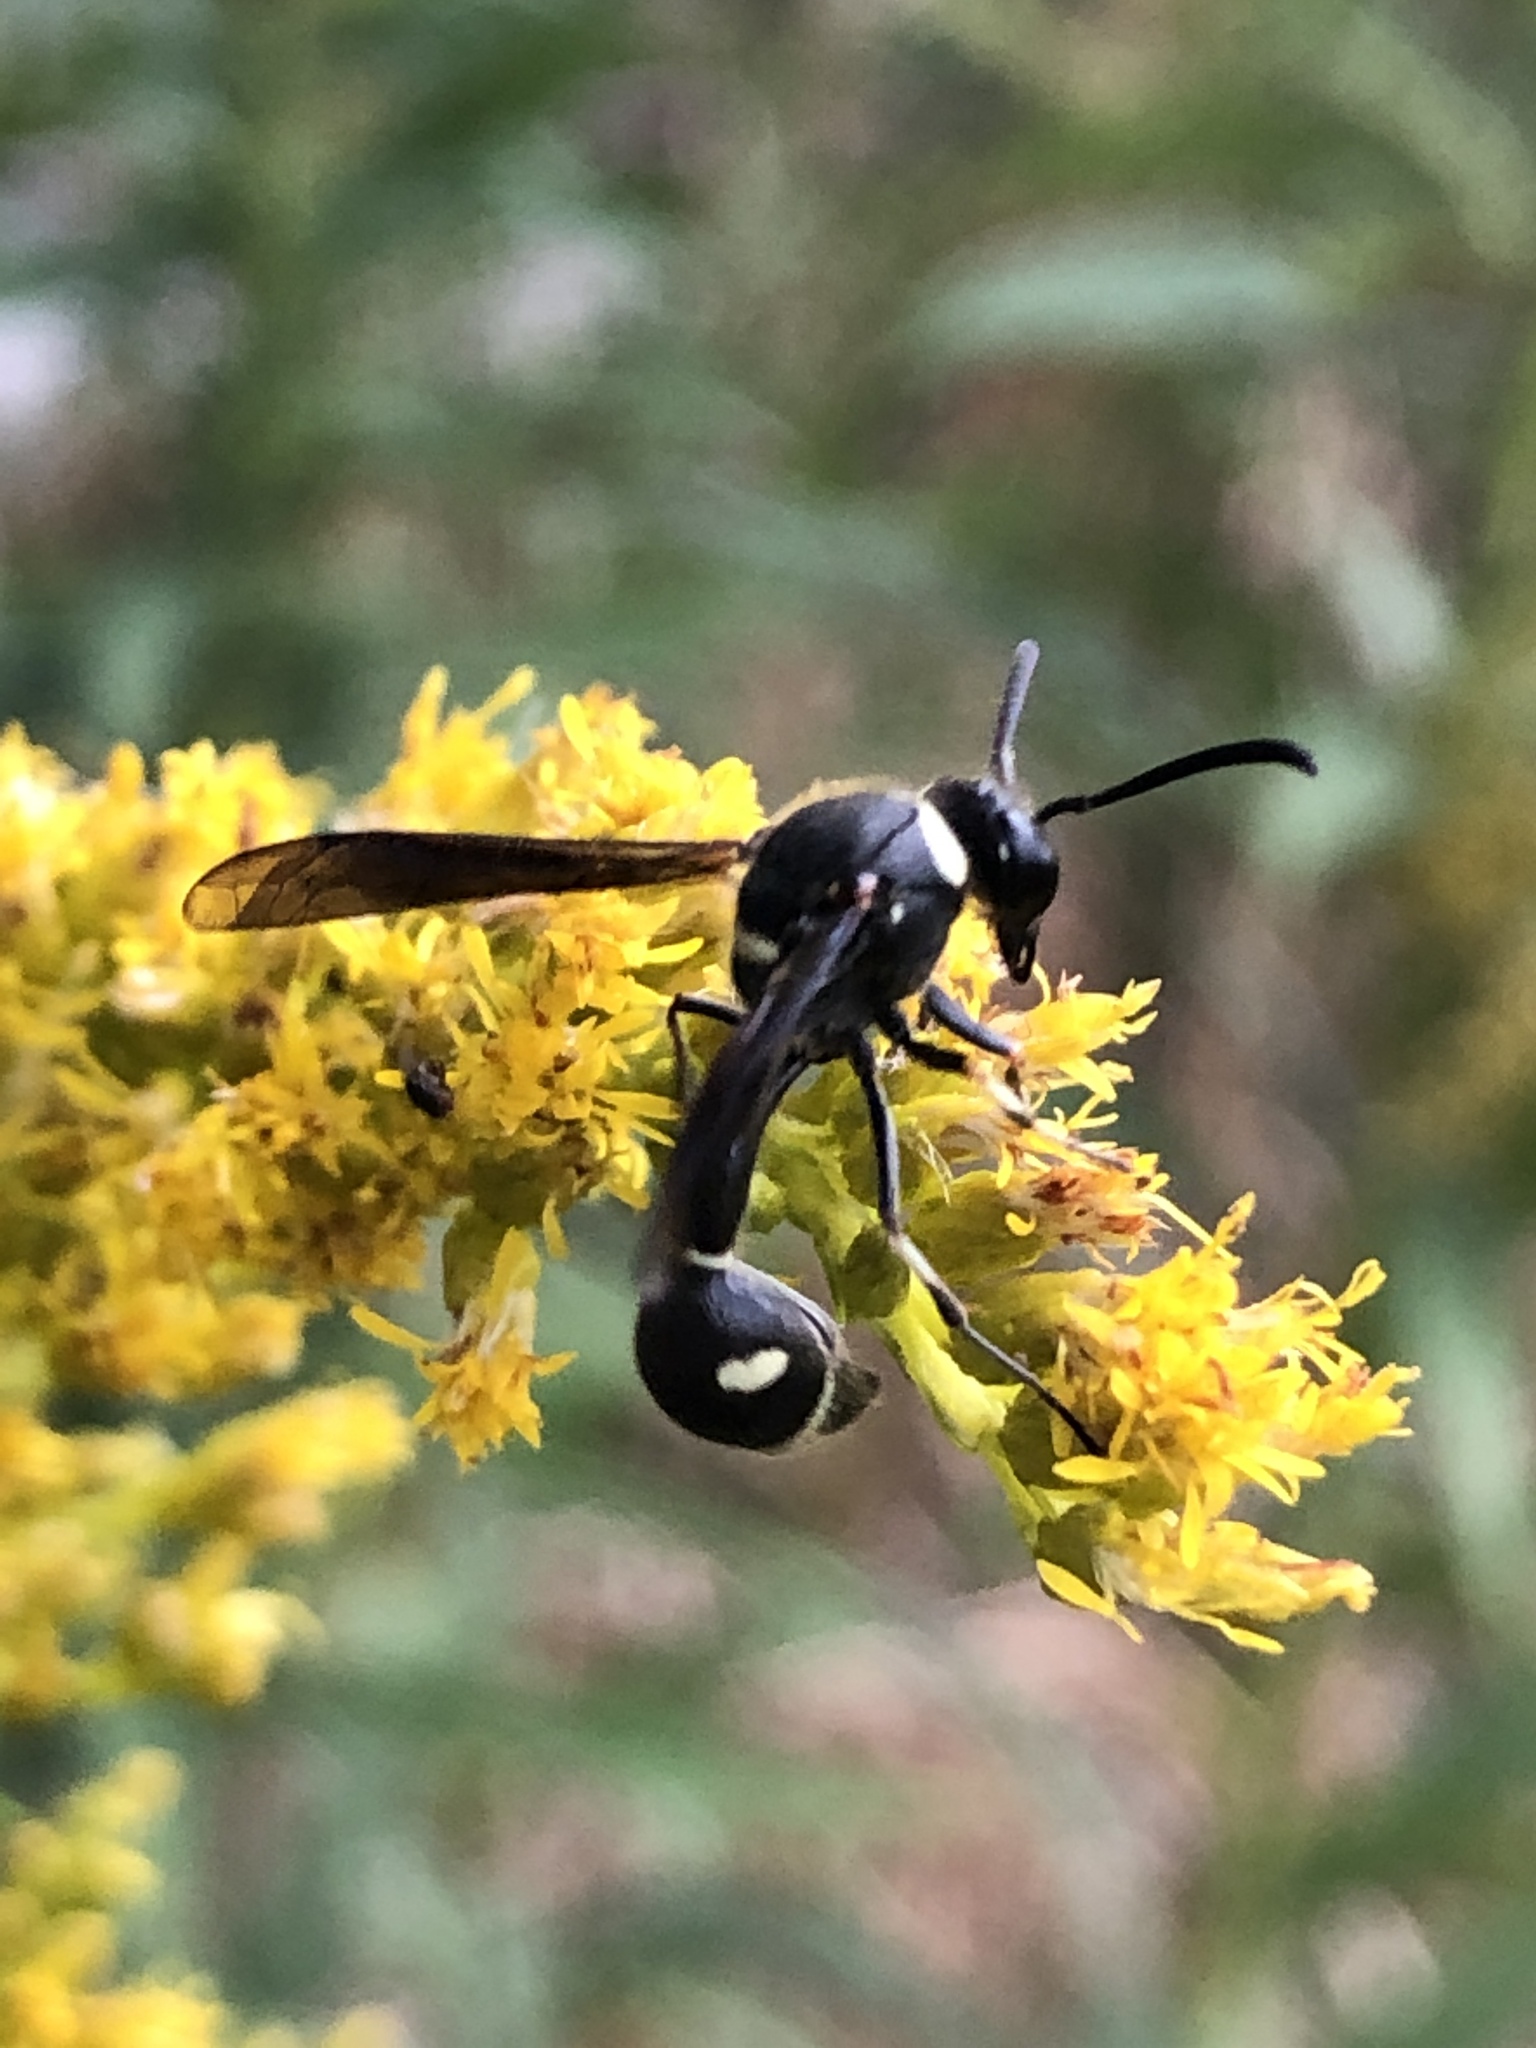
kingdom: Animalia
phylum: Arthropoda
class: Insecta
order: Hymenoptera
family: Vespidae
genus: Eumenes
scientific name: Eumenes fraternus
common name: Fraternal potter wasp
